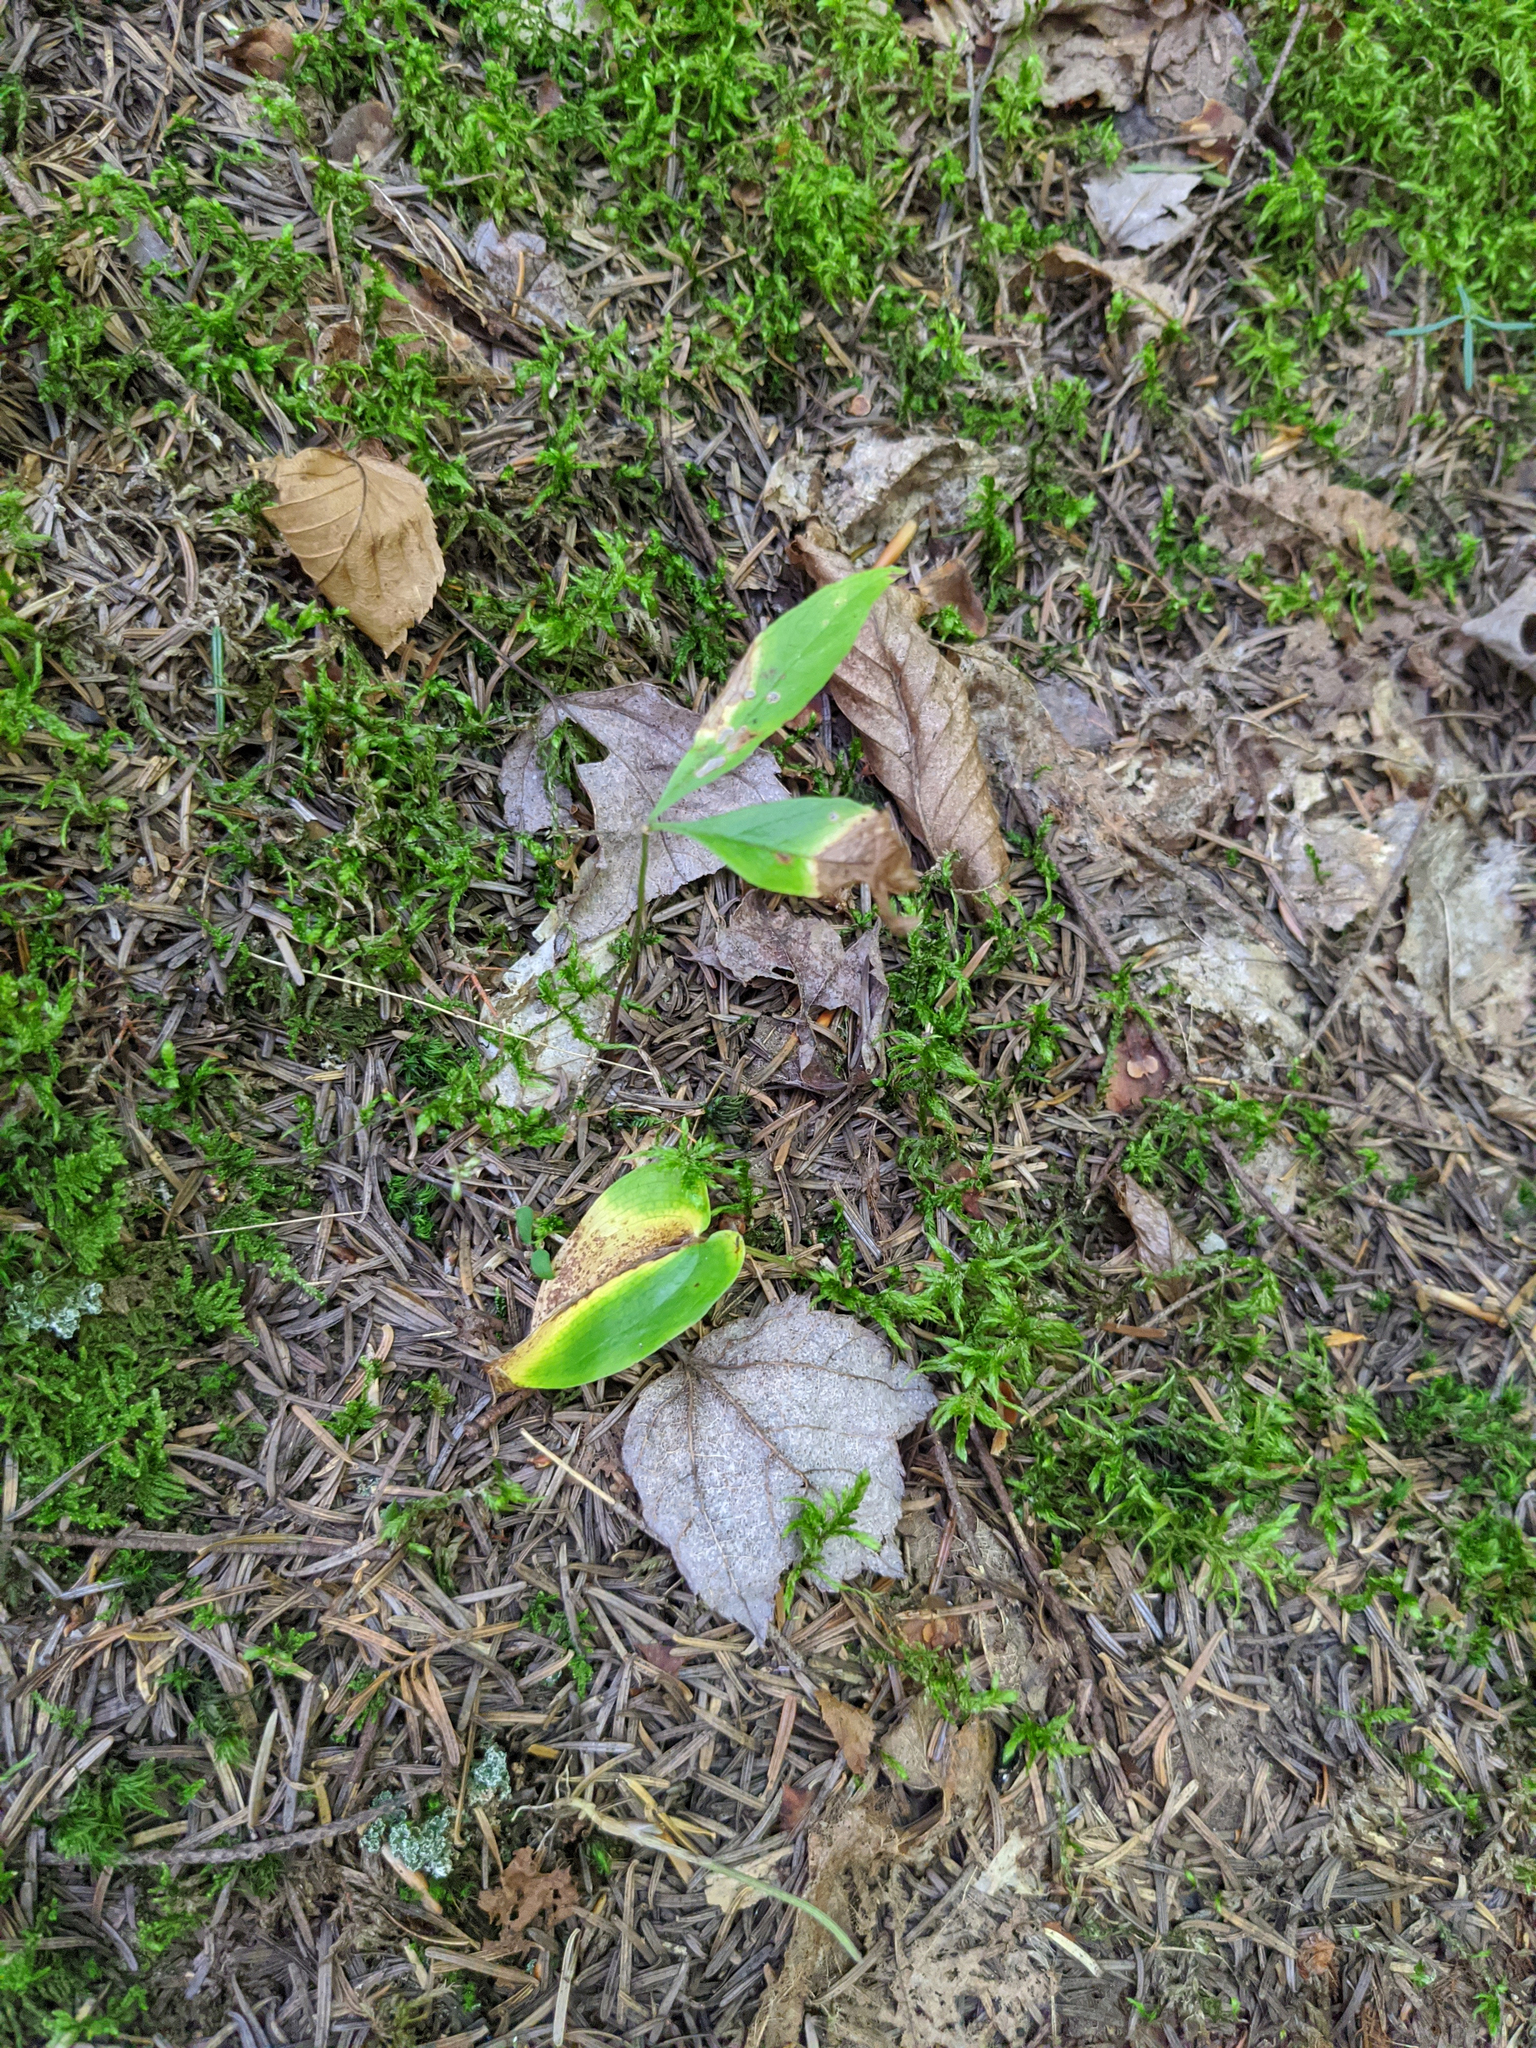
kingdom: Plantae
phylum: Tracheophyta
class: Liliopsida
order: Asparagales
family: Asparagaceae
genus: Maianthemum
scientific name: Maianthemum canadense
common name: False lily-of-the-valley
